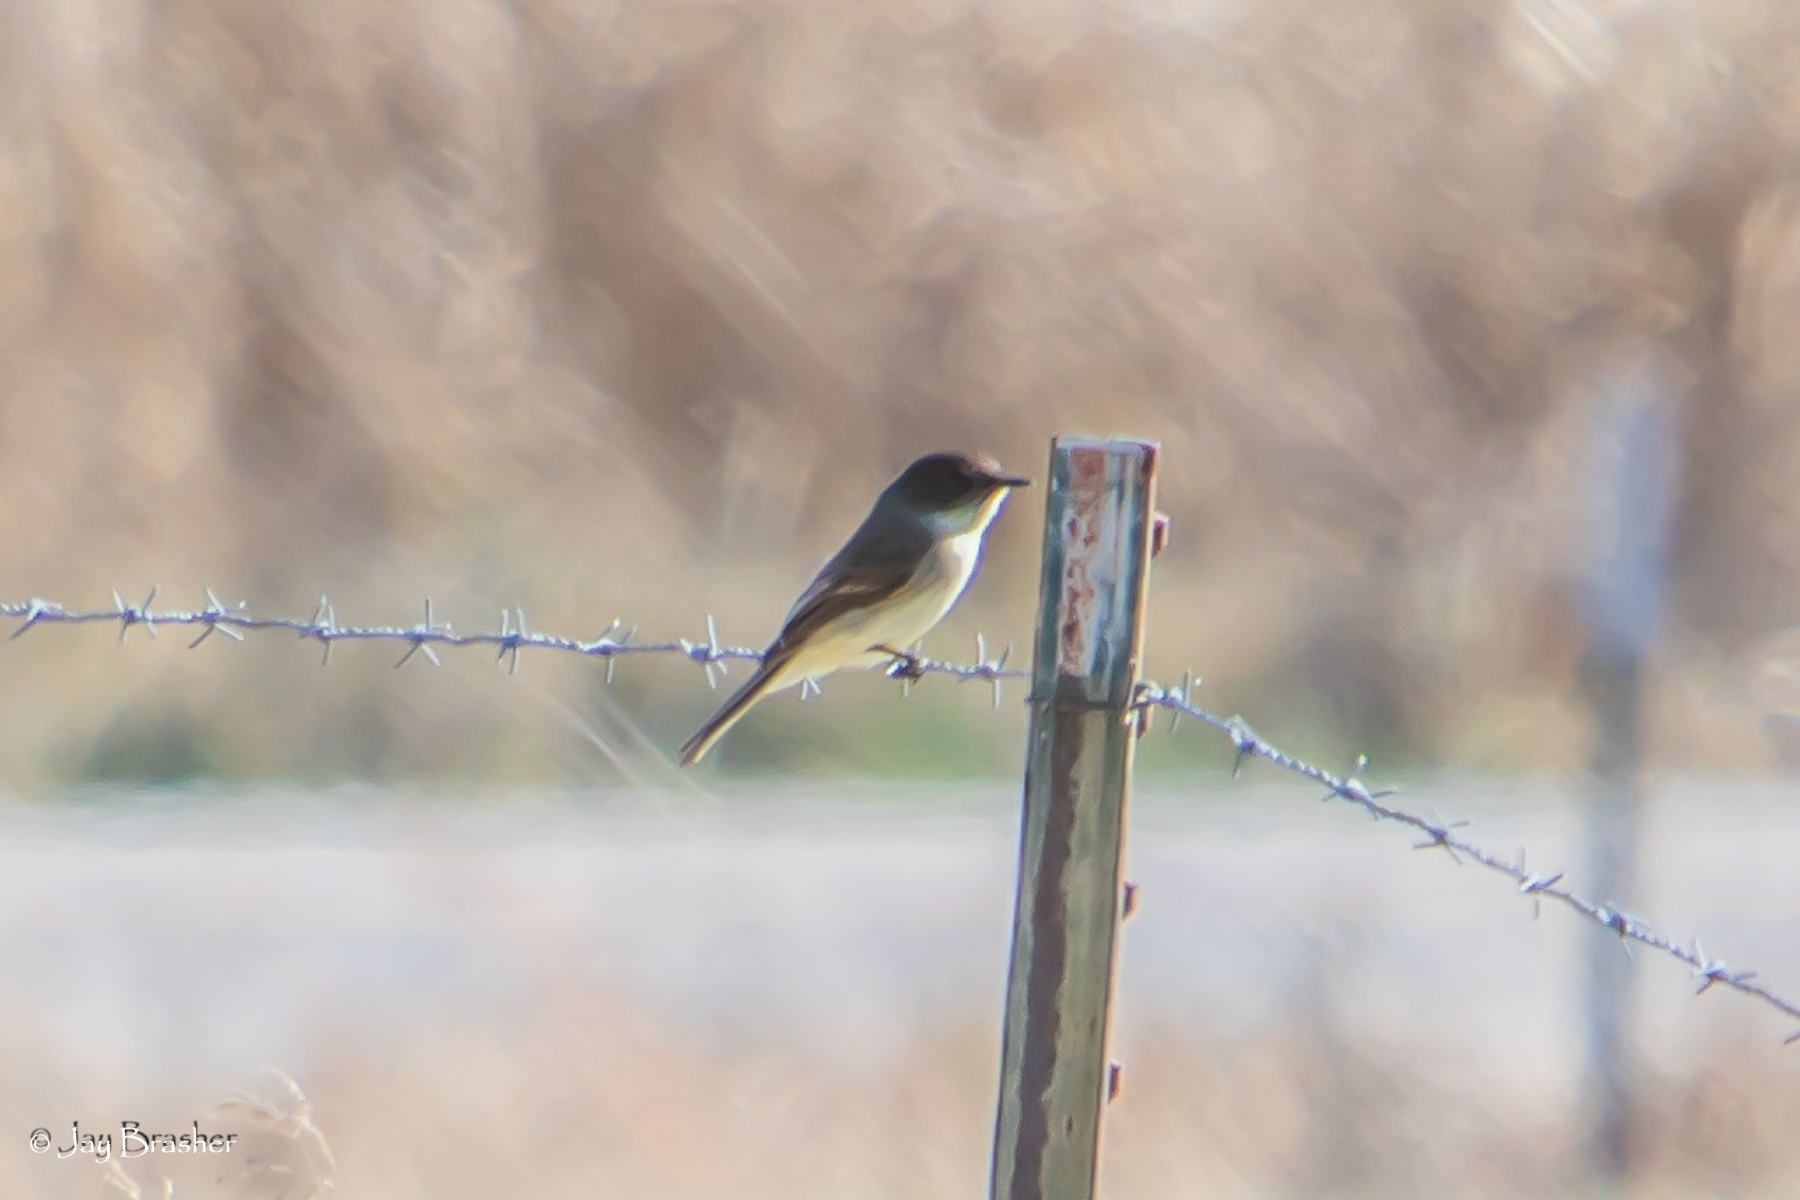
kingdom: Animalia
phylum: Chordata
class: Aves
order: Passeriformes
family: Tyrannidae
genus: Sayornis
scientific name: Sayornis phoebe
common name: Eastern phoebe
